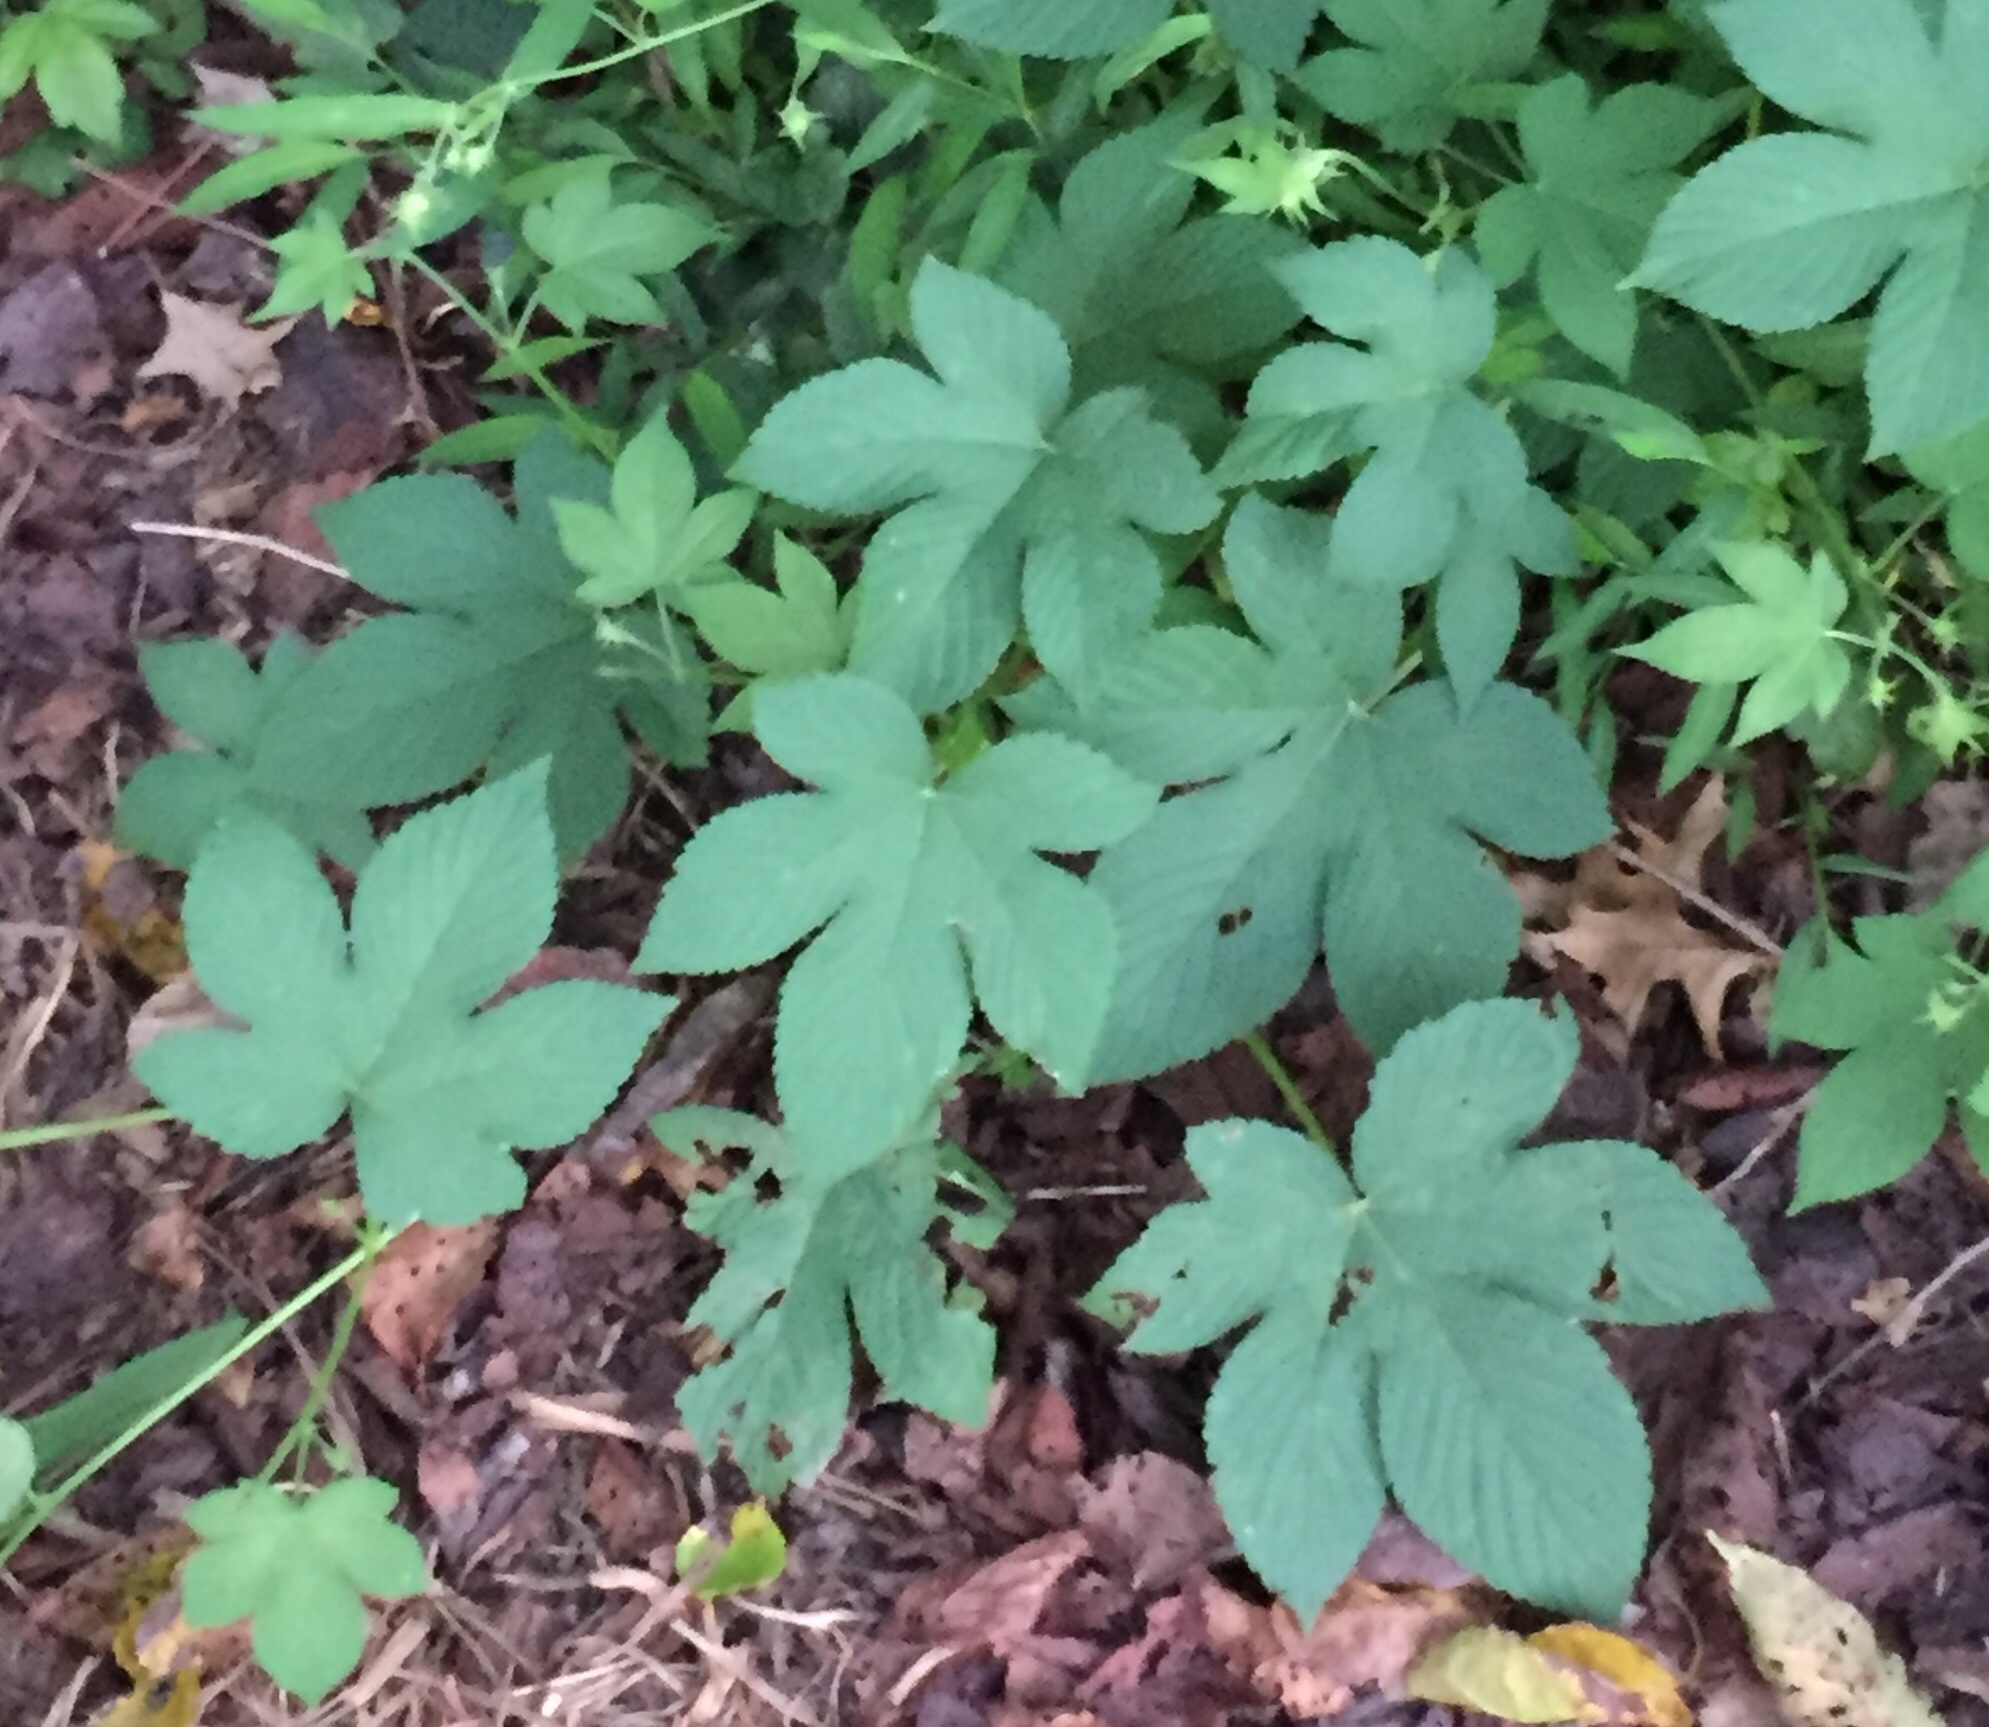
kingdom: Plantae
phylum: Tracheophyta
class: Magnoliopsida
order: Rosales
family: Cannabaceae
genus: Humulus
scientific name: Humulus scandens
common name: Japanese hop
